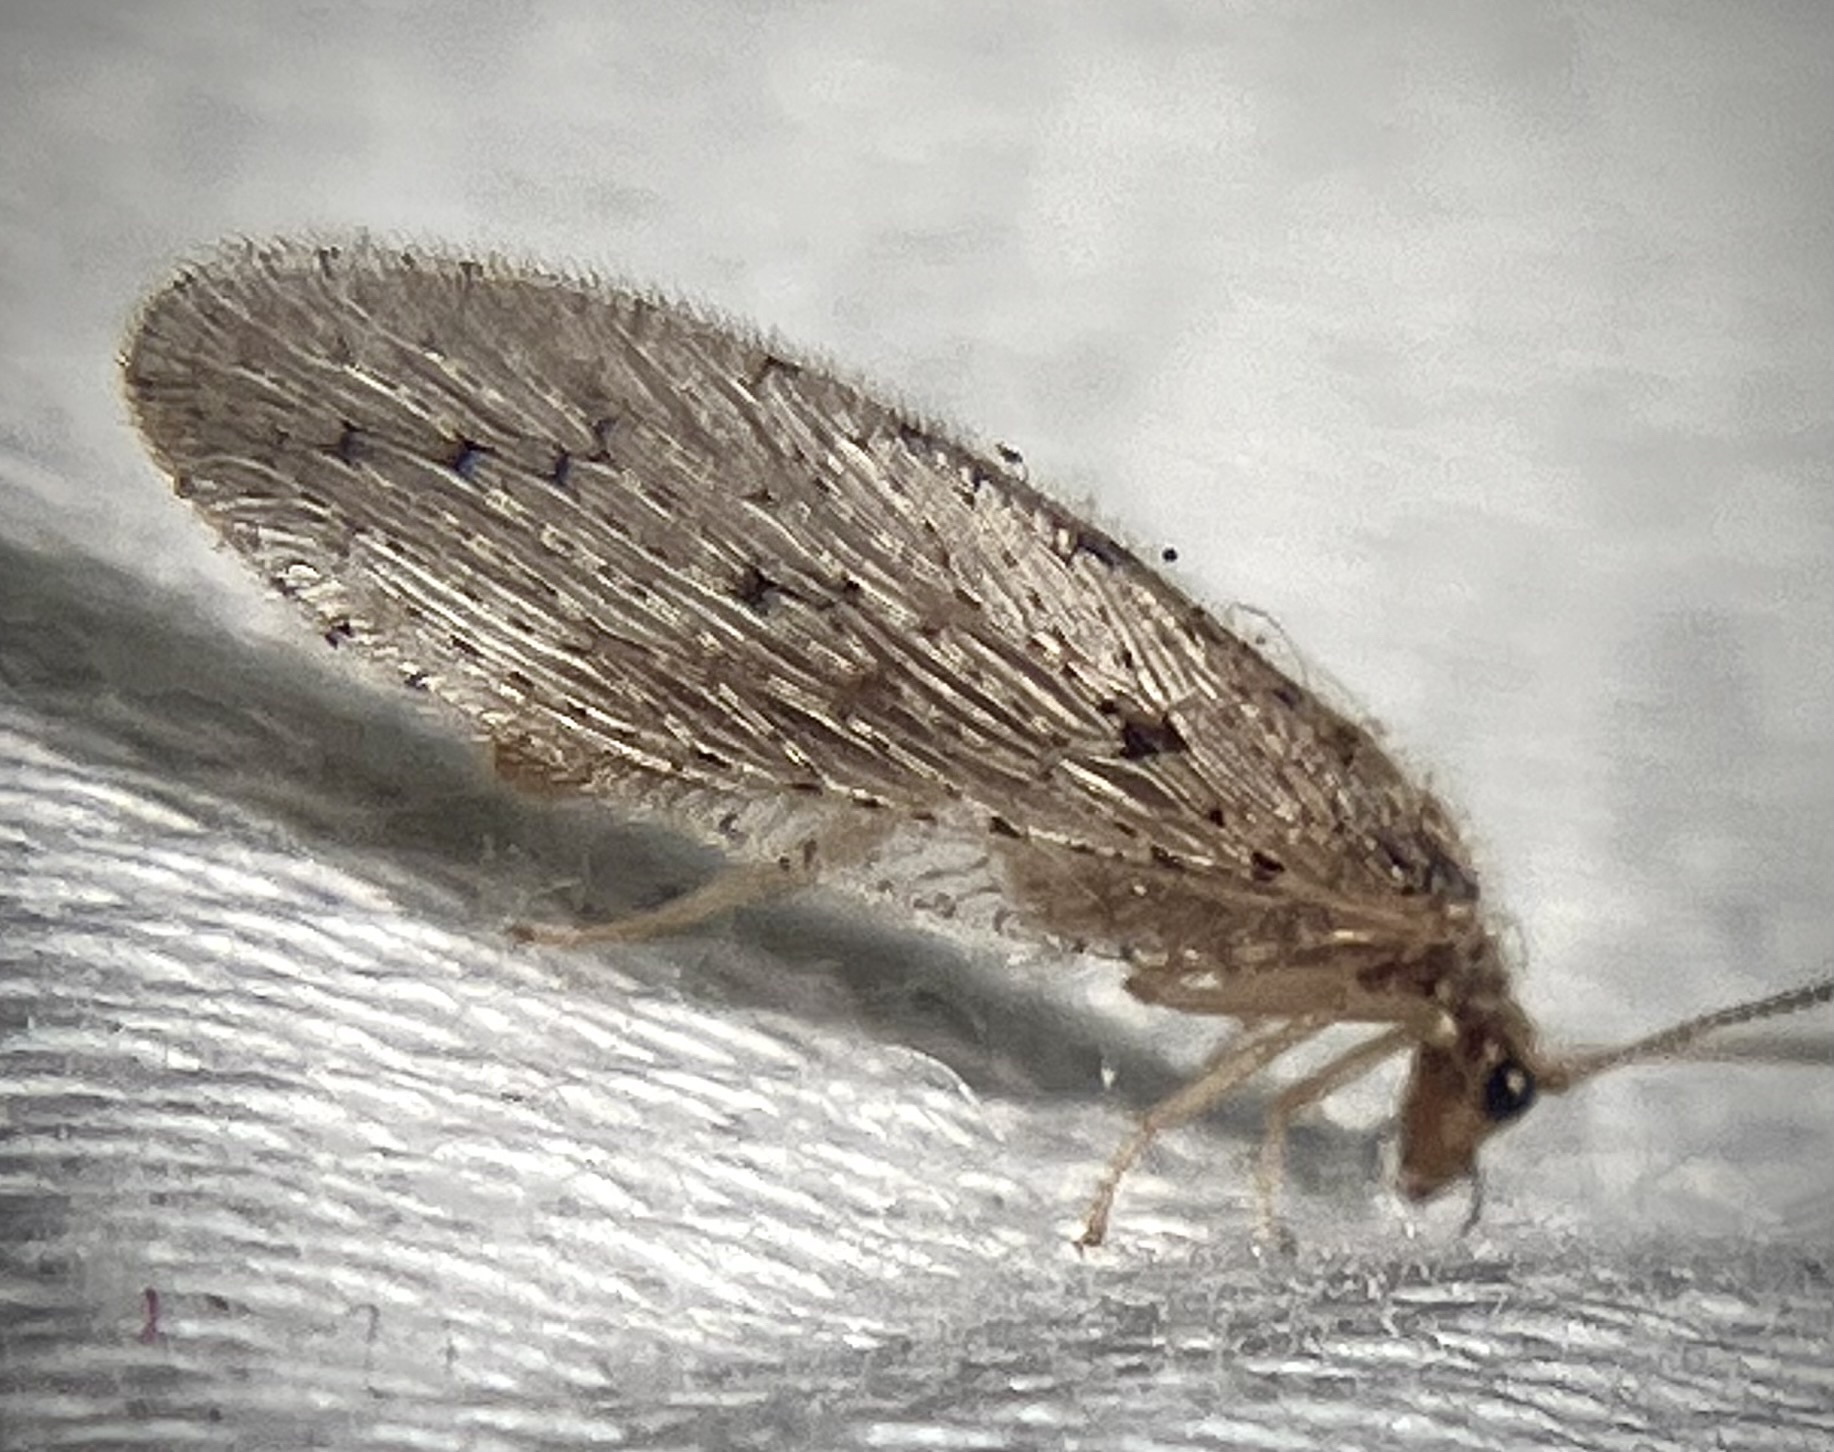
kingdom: Animalia
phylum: Arthropoda
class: Insecta
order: Neuroptera
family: Hemerobiidae
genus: Micromus
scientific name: Micromus subanticus
